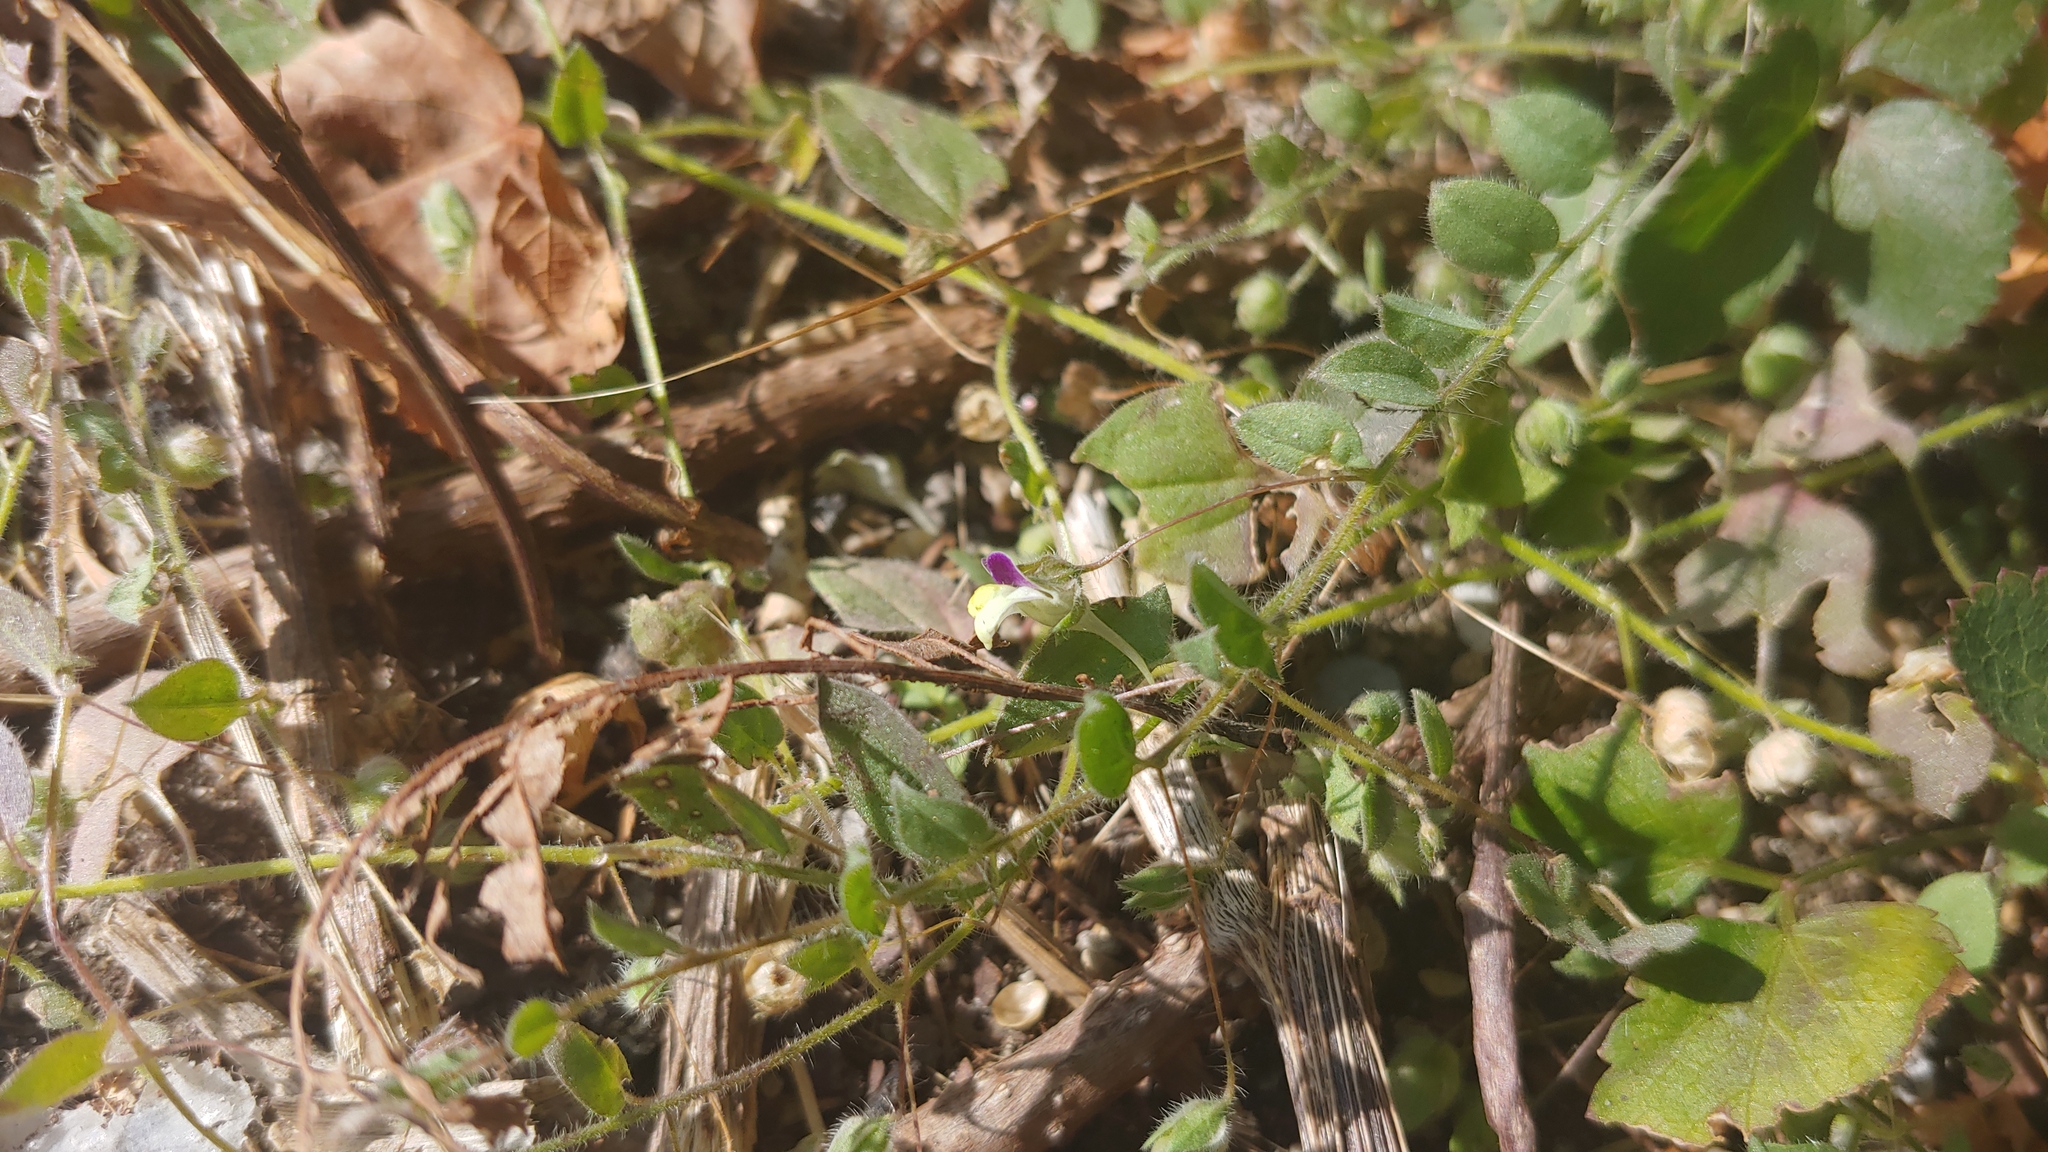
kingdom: Plantae
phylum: Tracheophyta
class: Magnoliopsida
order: Lamiales
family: Plantaginaceae
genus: Kickxia
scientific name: Kickxia elatine
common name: Sharp-leaved fluellen
